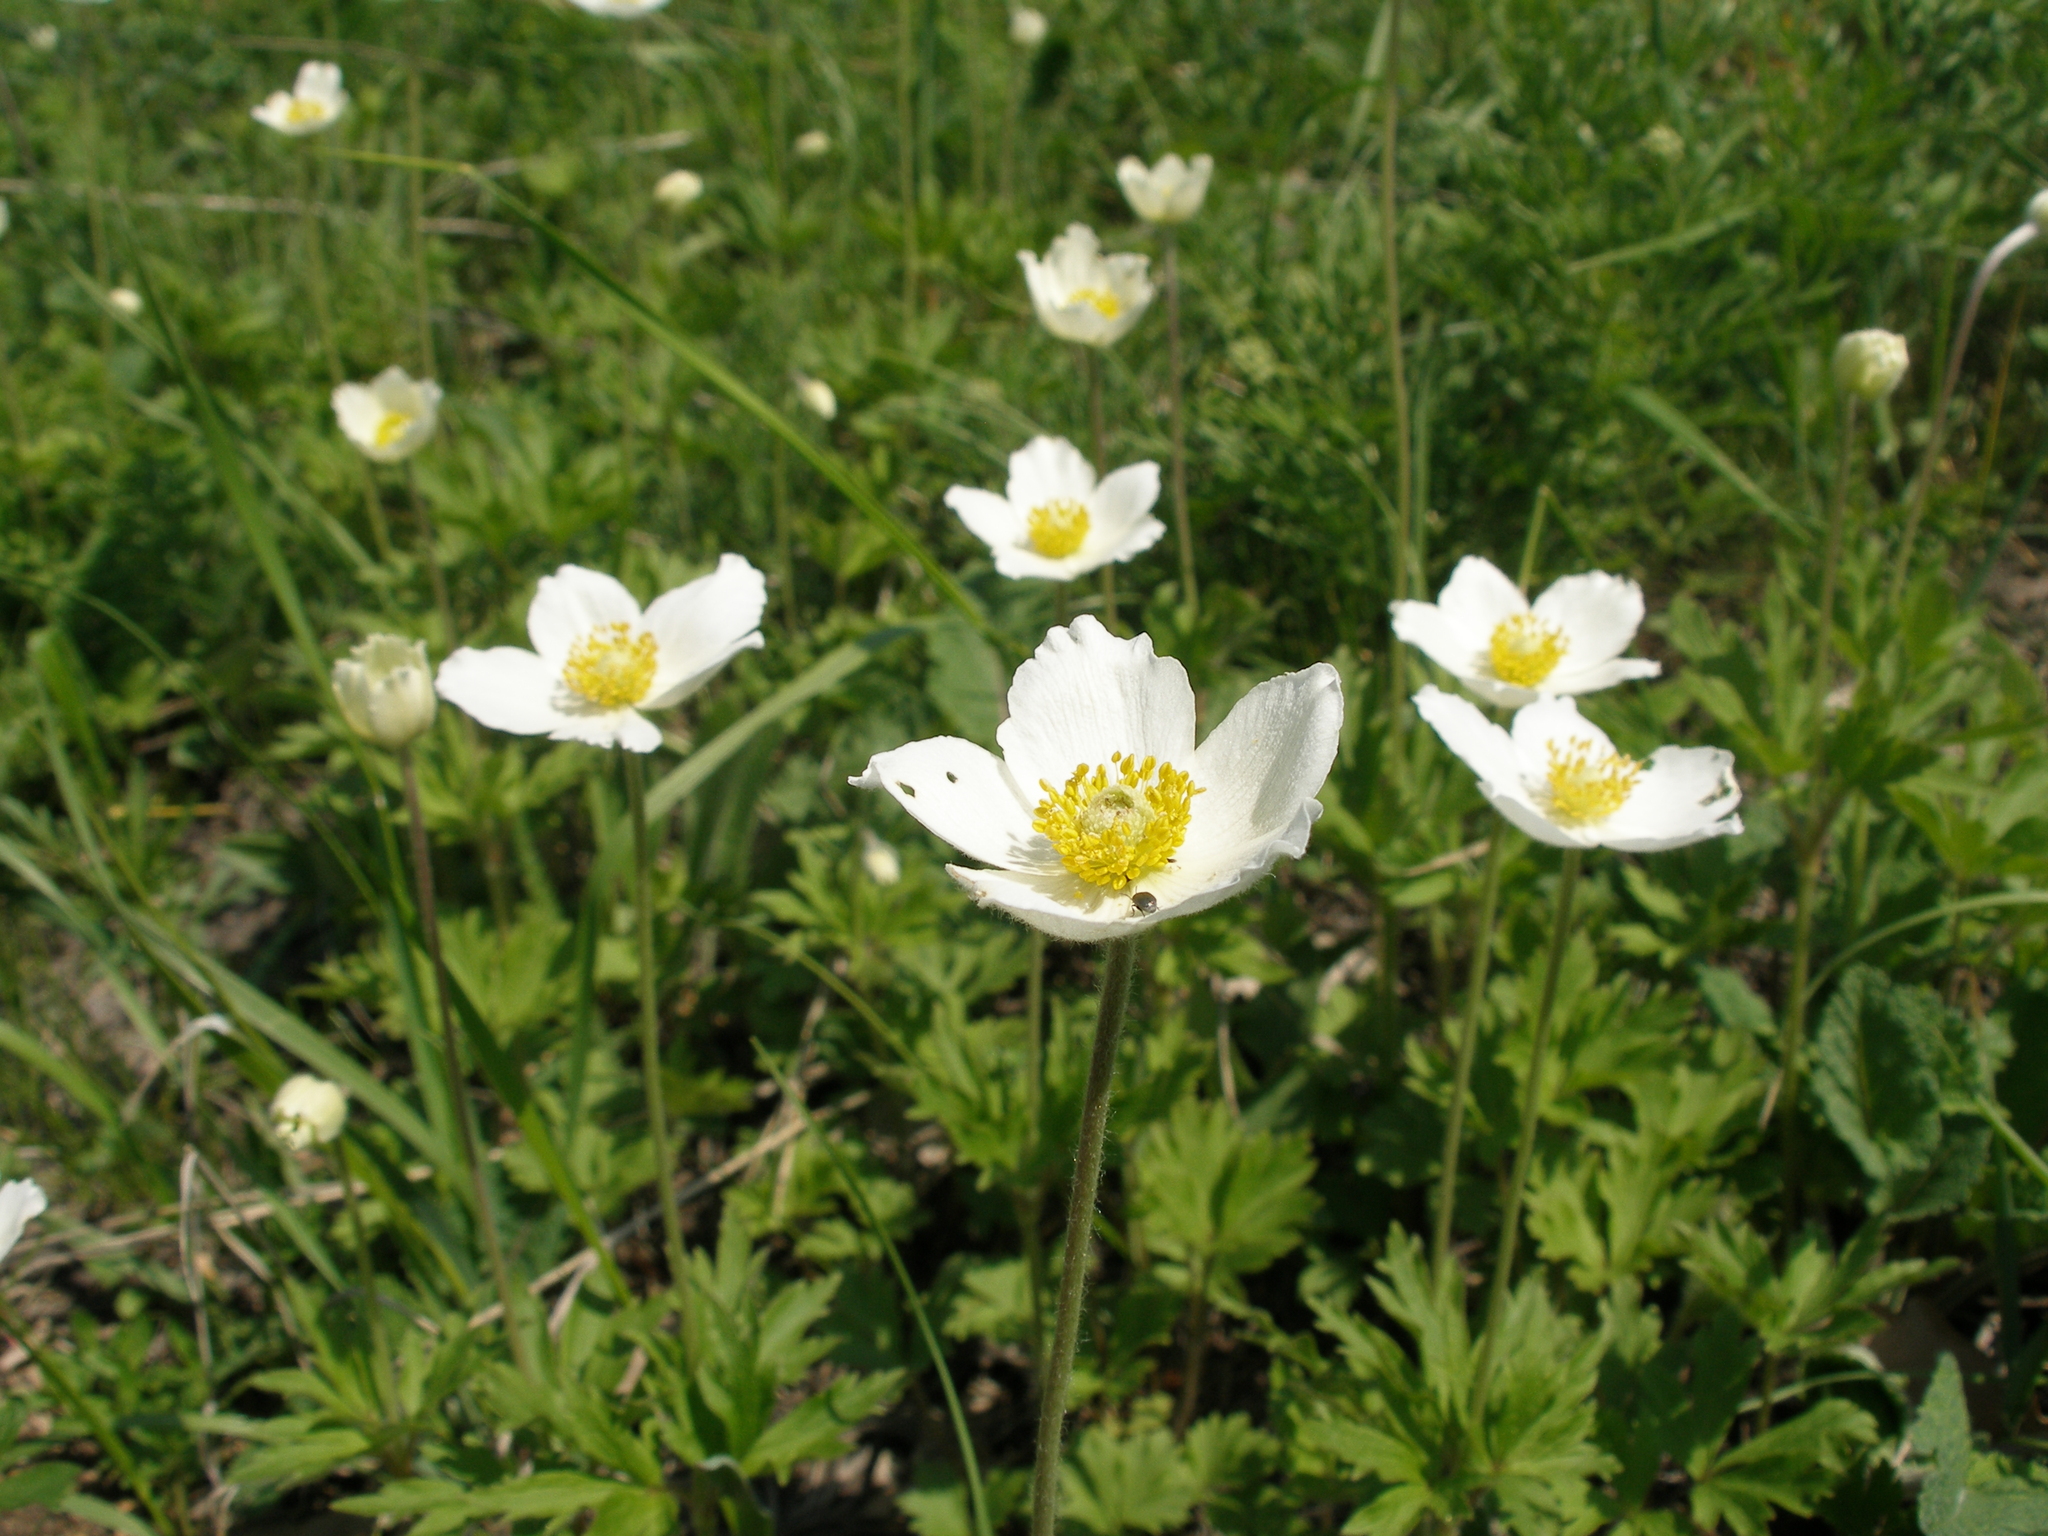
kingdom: Plantae
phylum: Tracheophyta
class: Magnoliopsida
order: Ranunculales
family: Ranunculaceae
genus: Anemone
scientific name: Anemone sylvestris
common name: Snowdrop anemone
